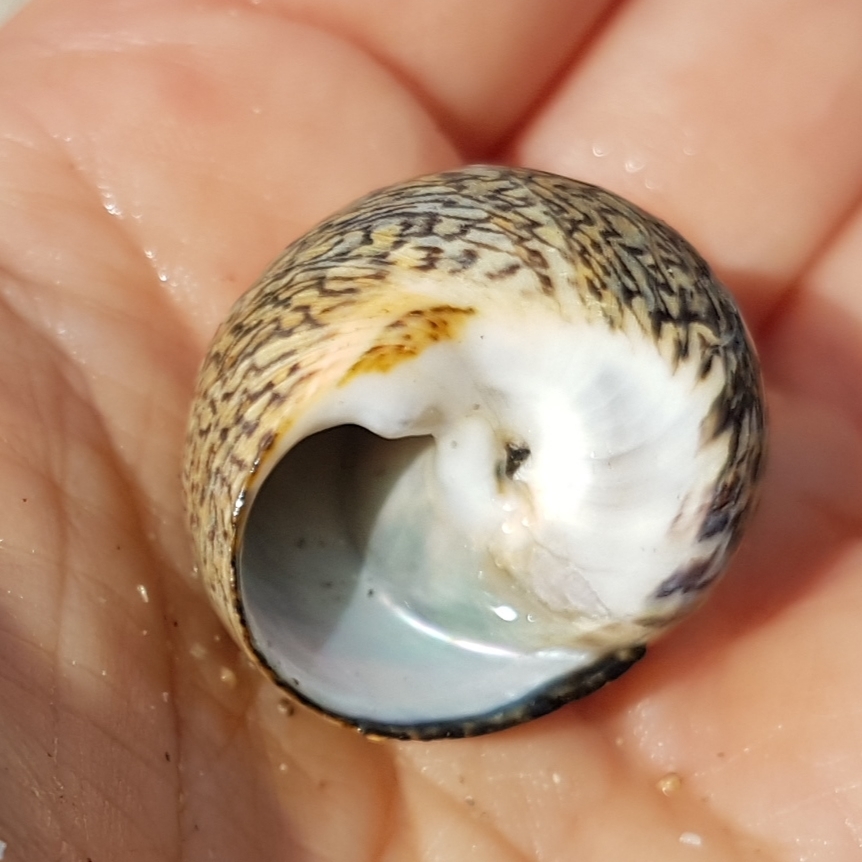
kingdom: Animalia
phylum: Mollusca
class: Gastropoda
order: Trochida
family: Trochidae
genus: Phorcus
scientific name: Phorcus lineatus
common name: Toothed top shell
